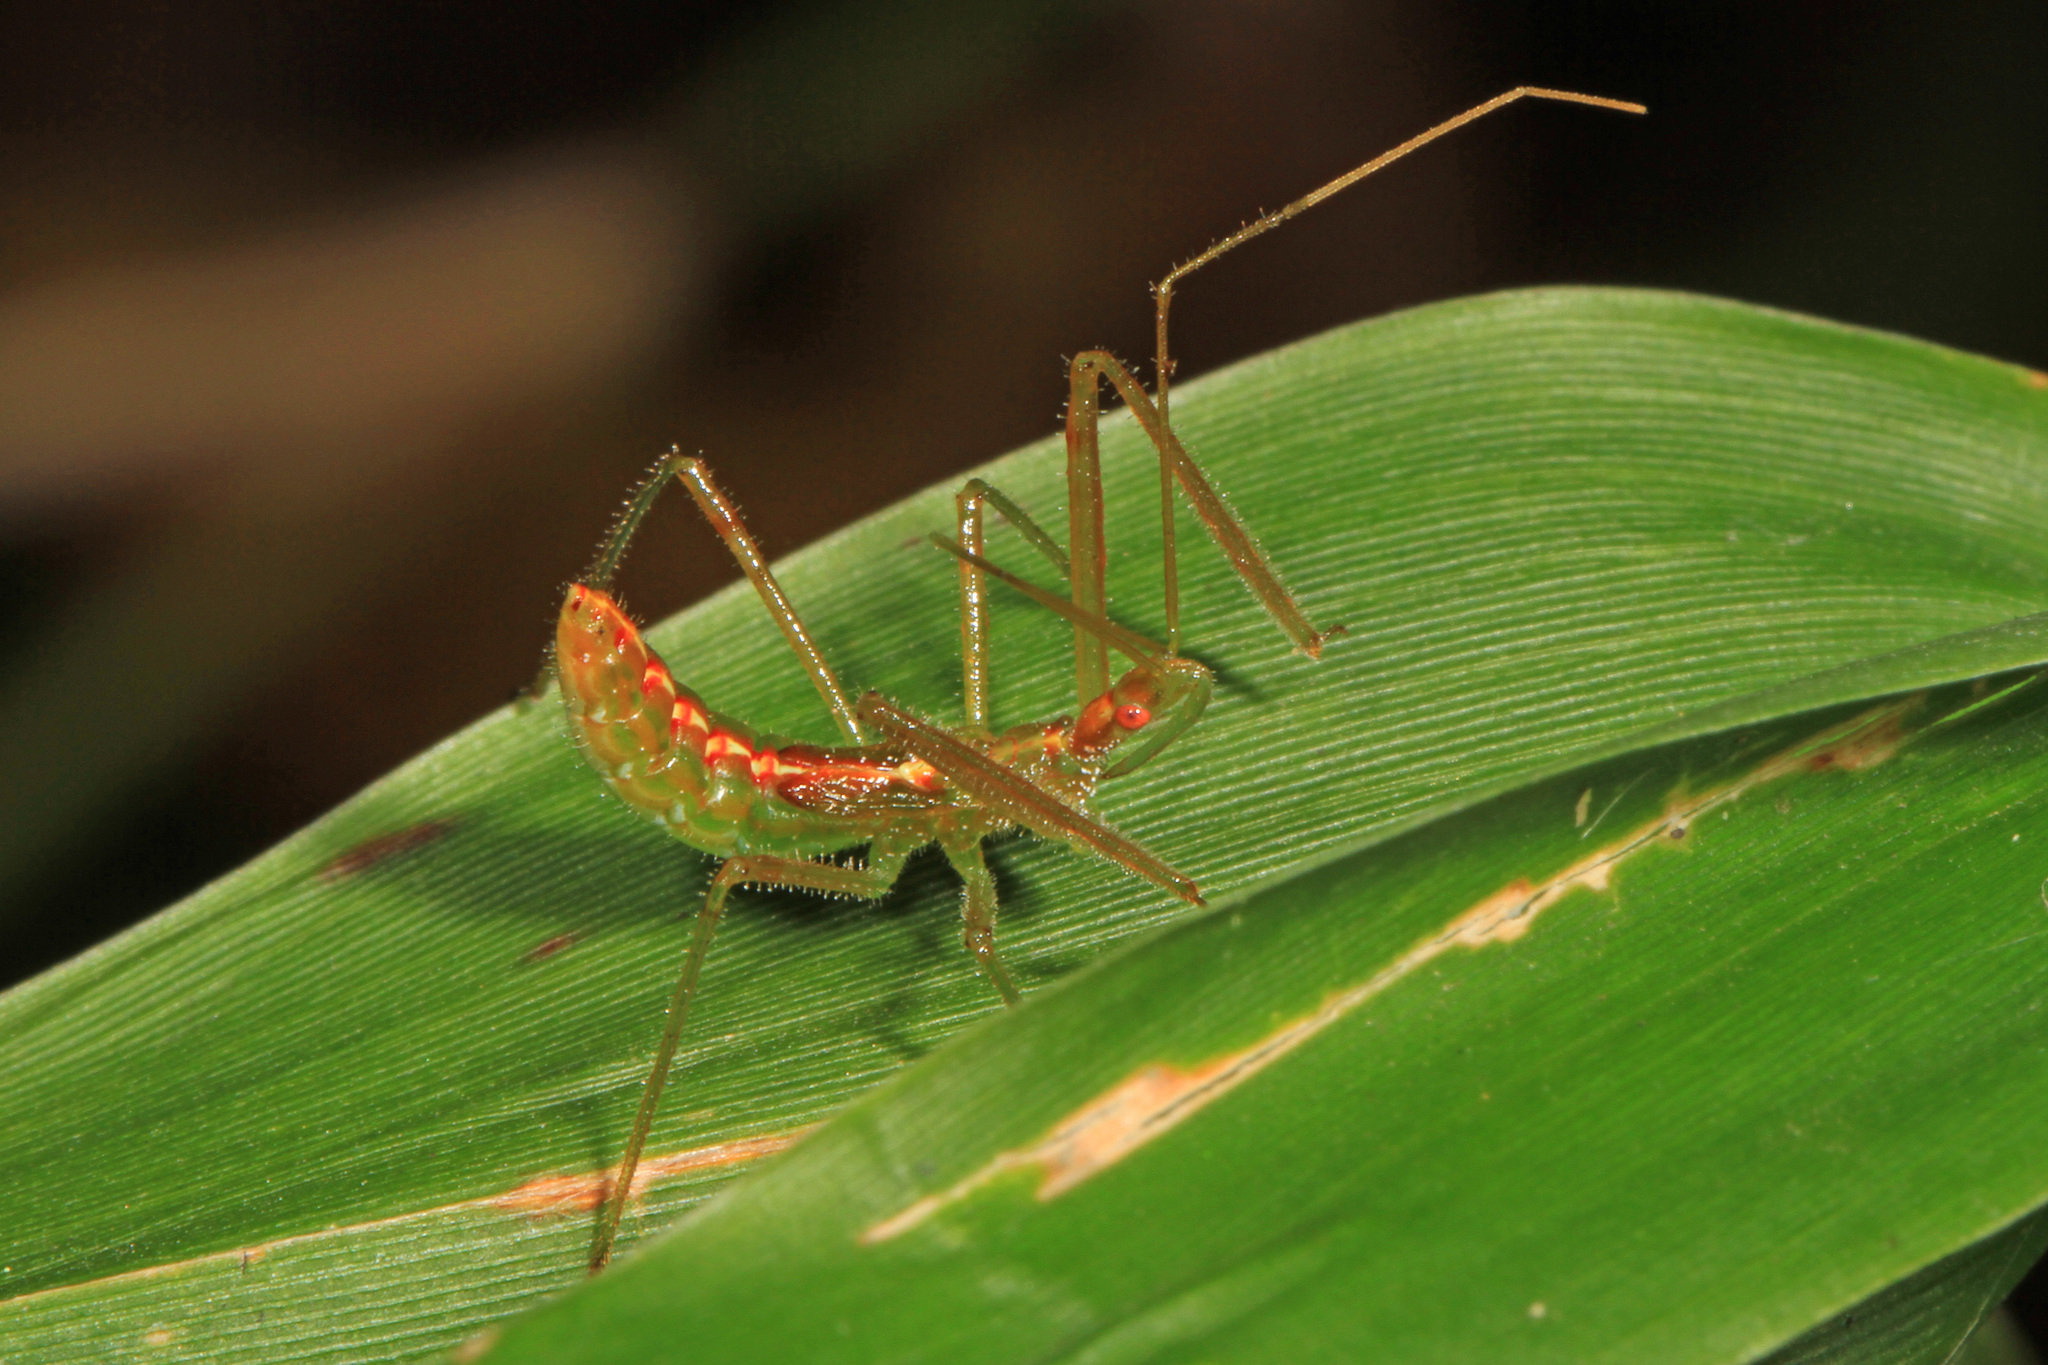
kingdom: Animalia
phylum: Arthropoda
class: Insecta
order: Hemiptera
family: Reduviidae
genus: Zelus
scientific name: Zelus luridus
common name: Pale green assassin bug
